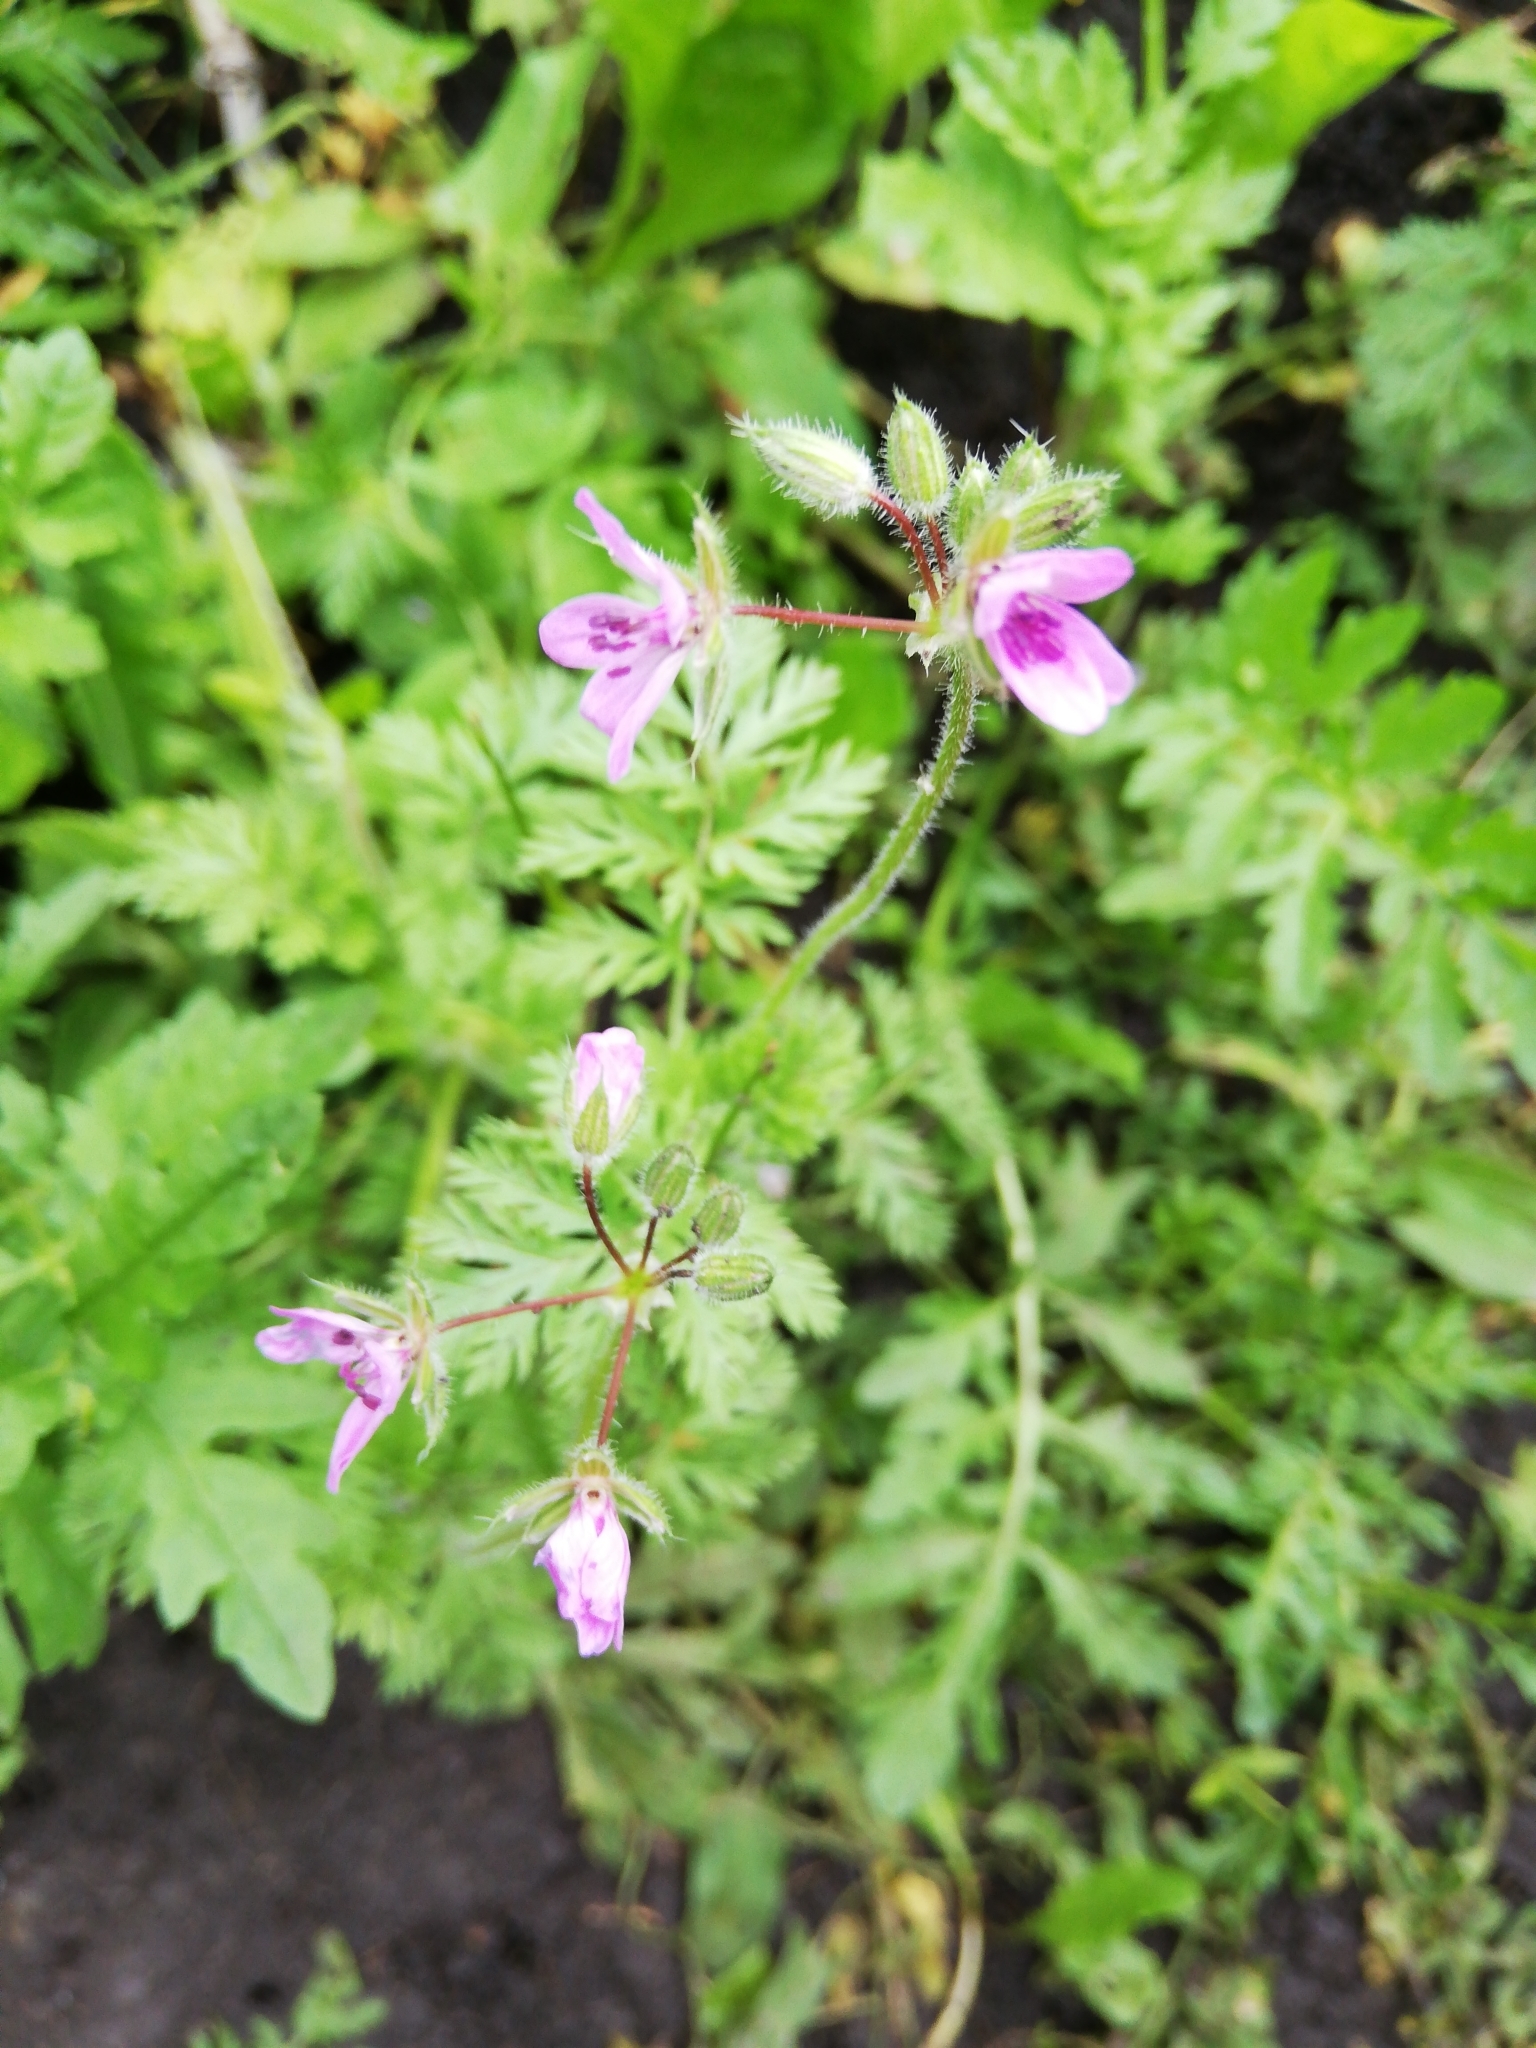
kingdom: Plantae
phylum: Tracheophyta
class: Magnoliopsida
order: Geraniales
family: Geraniaceae
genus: Erodium
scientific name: Erodium cicutarium
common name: Common stork's-bill
